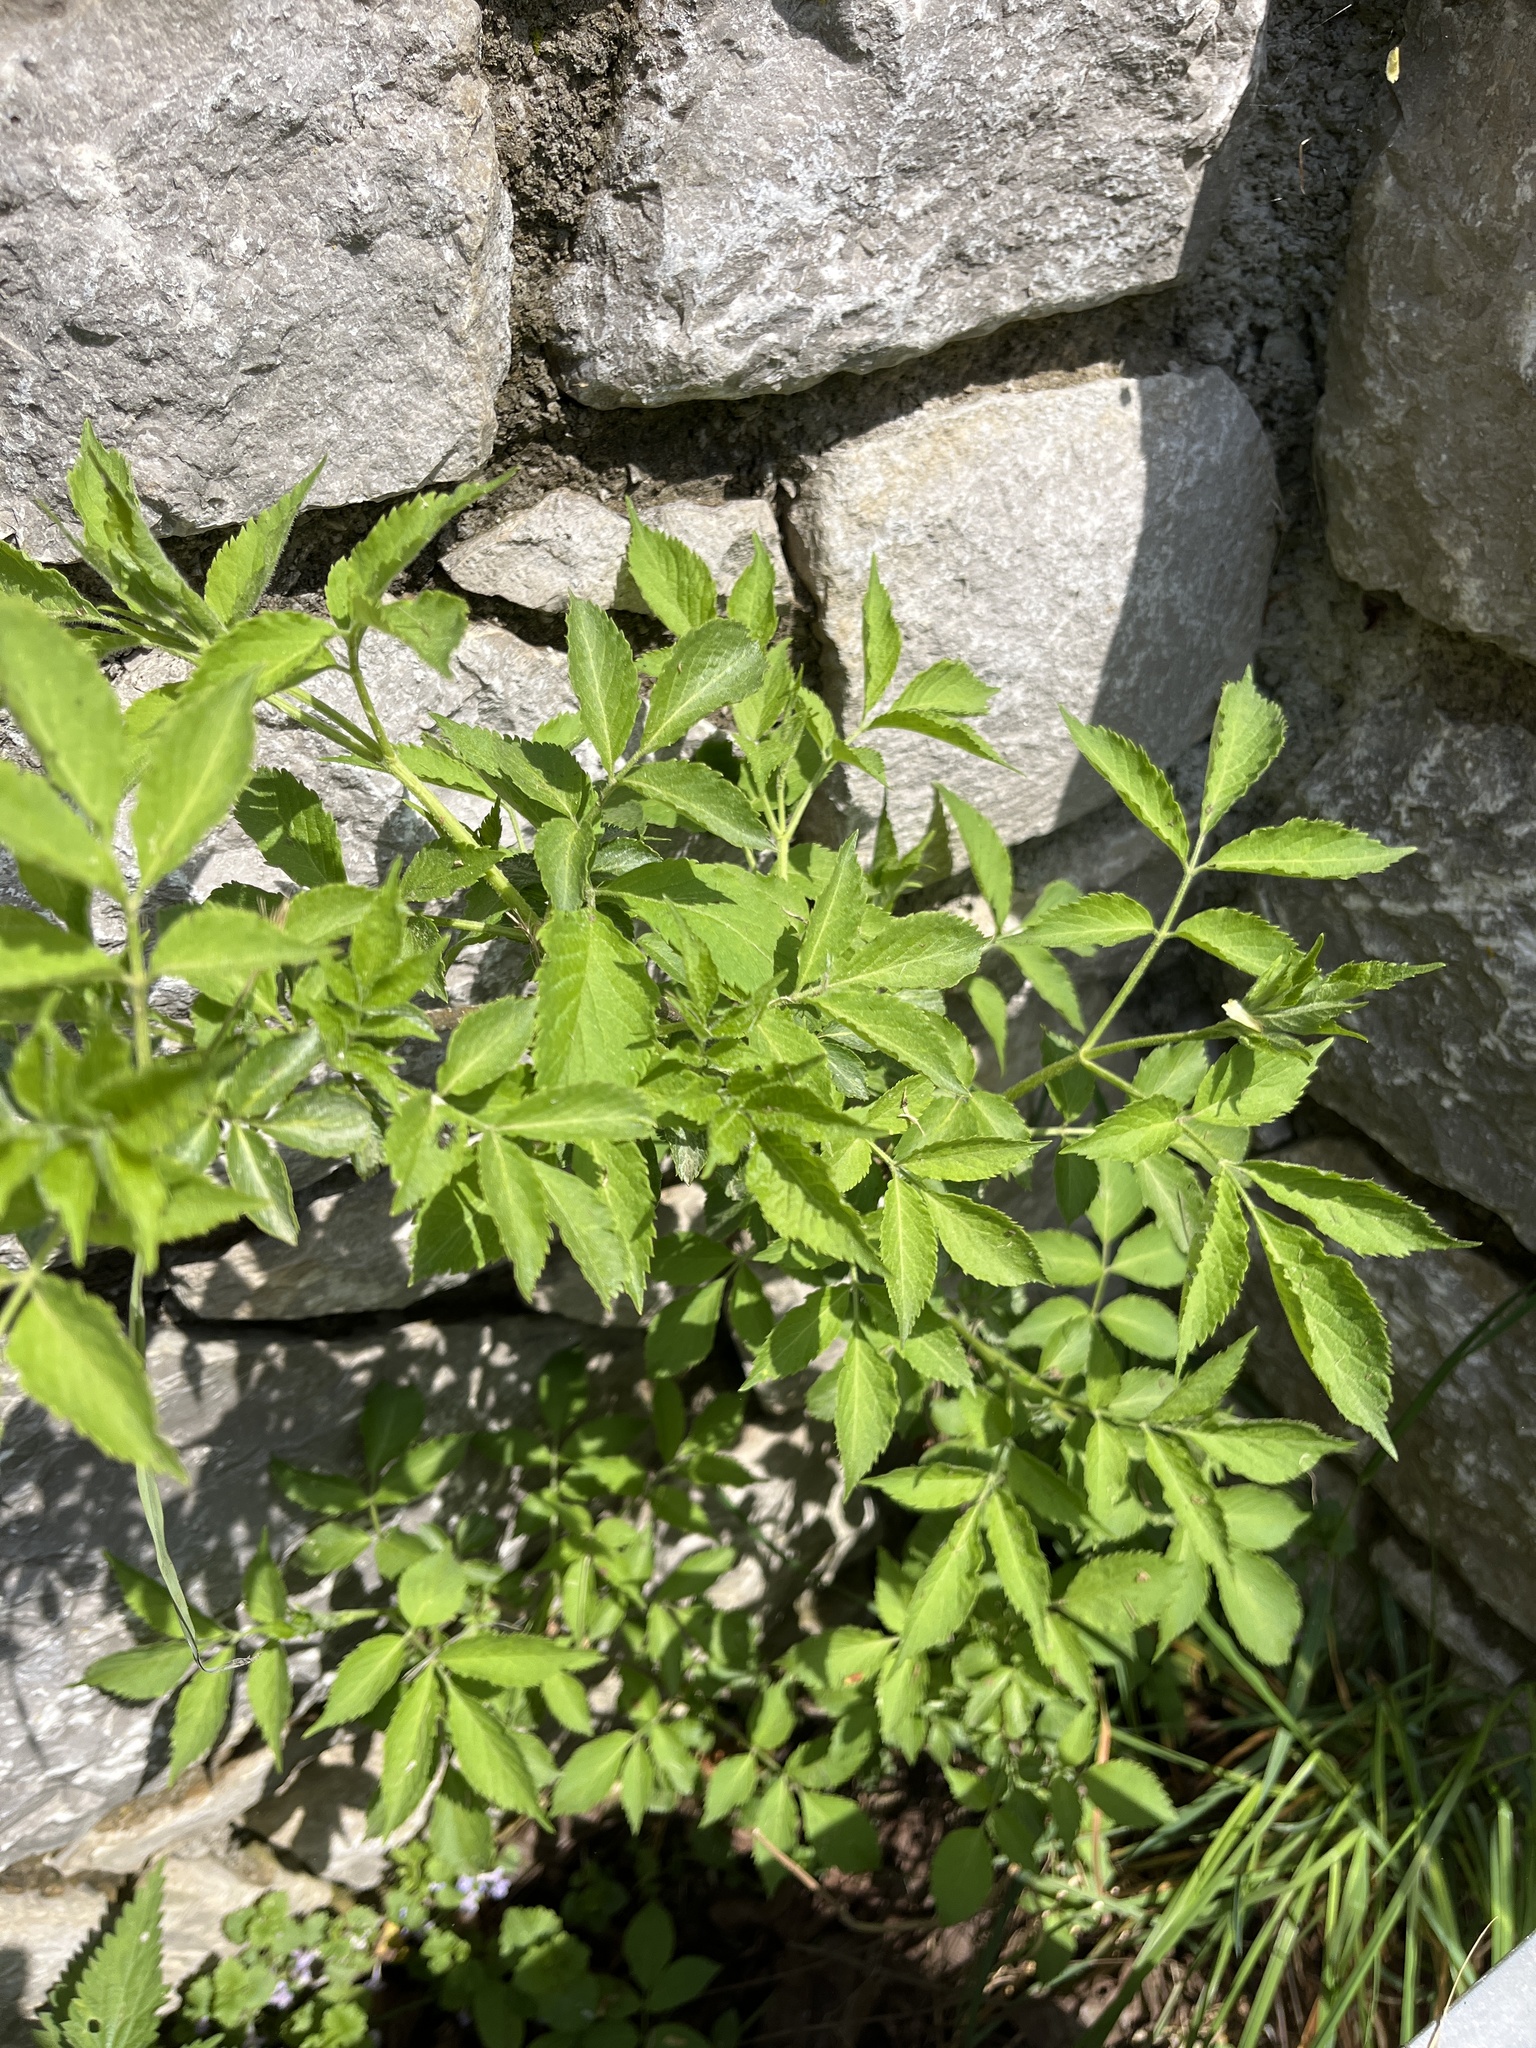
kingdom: Plantae
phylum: Tracheophyta
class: Magnoliopsida
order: Dipsacales
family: Viburnaceae
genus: Sambucus
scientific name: Sambucus nigra
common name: Elder
